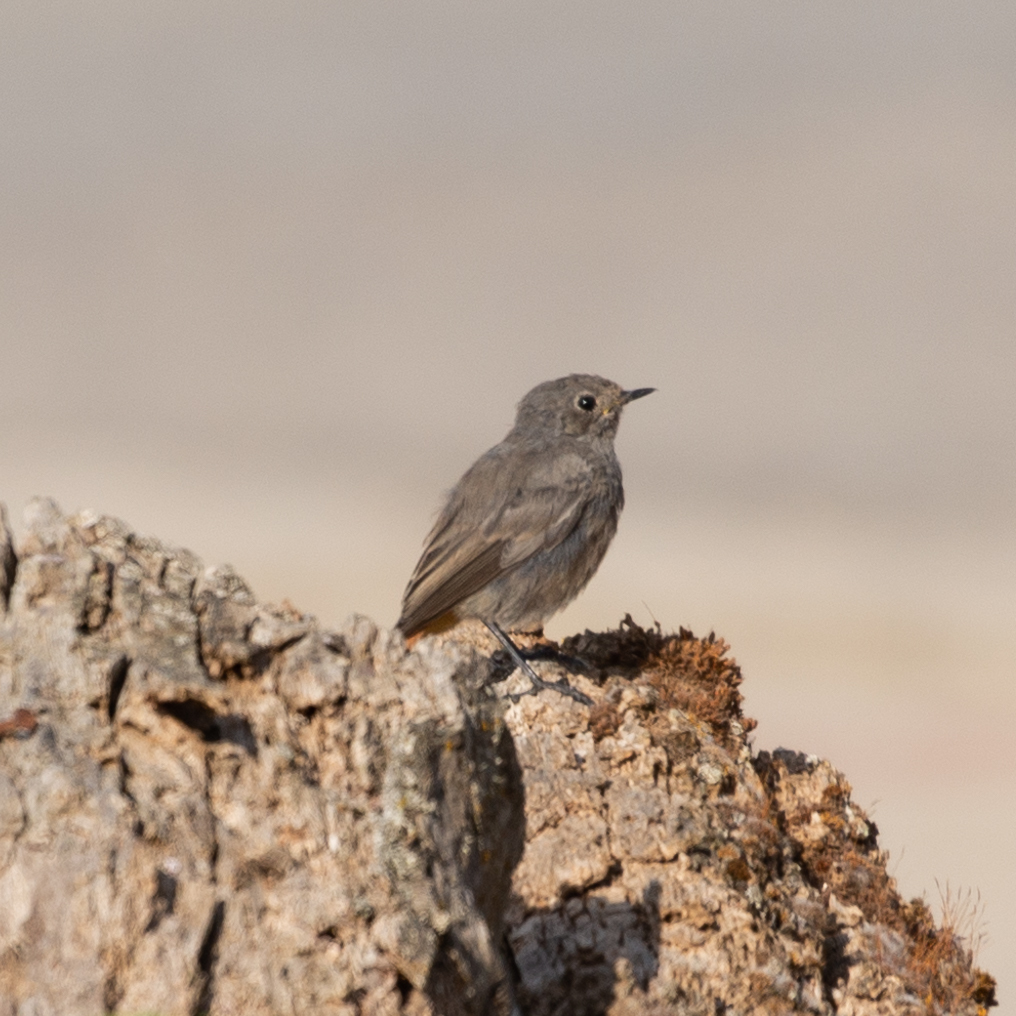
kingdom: Animalia
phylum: Chordata
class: Aves
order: Passeriformes
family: Muscicapidae
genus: Phoenicurus
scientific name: Phoenicurus ochruros
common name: Black redstart
